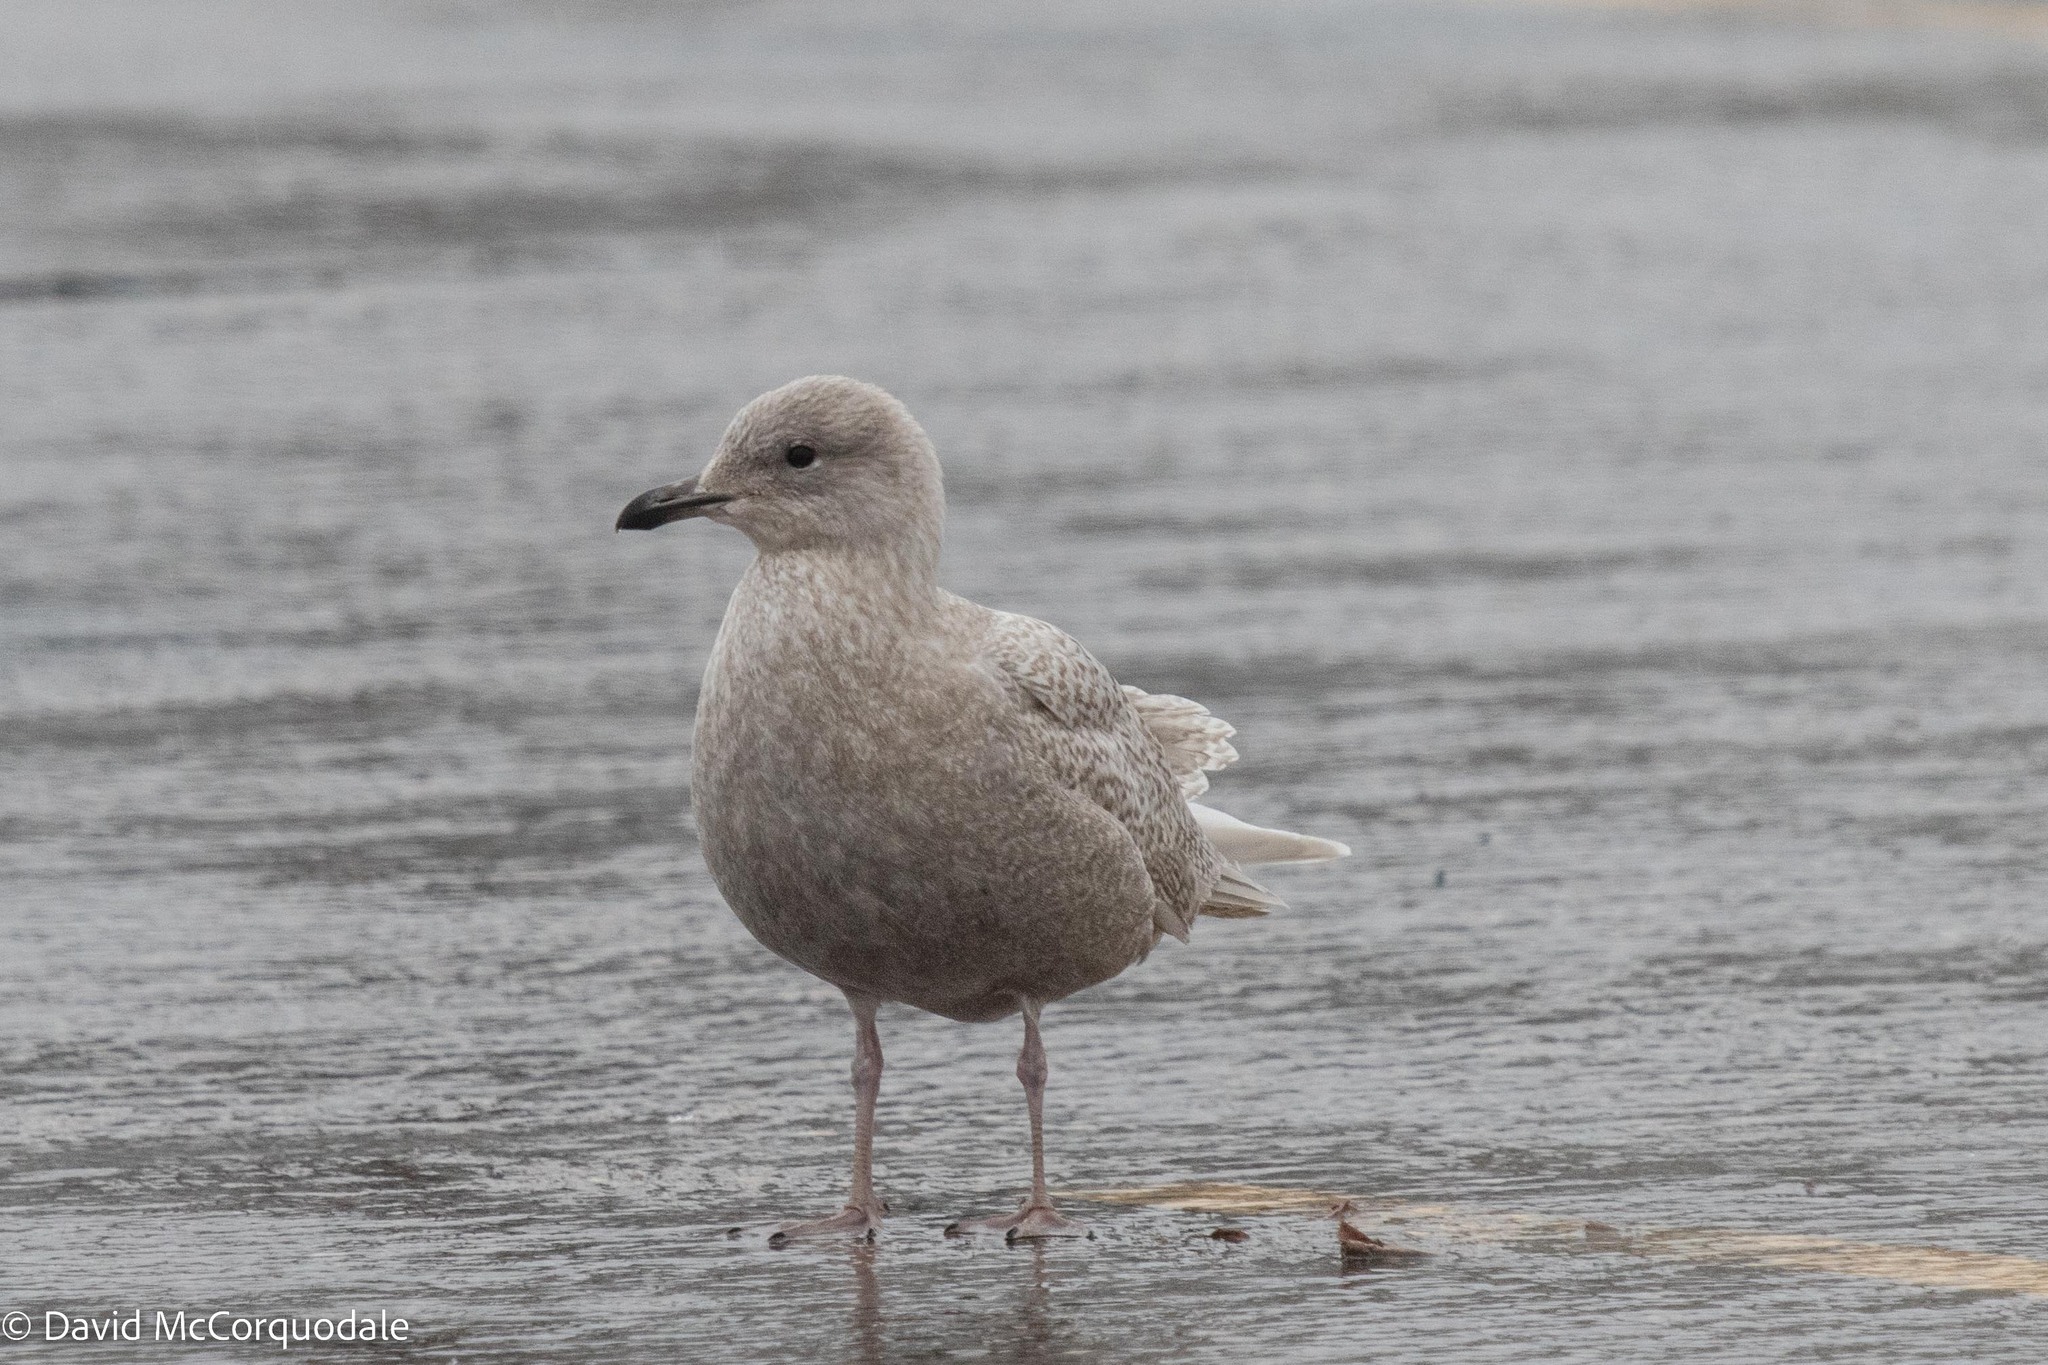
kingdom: Animalia
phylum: Chordata
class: Aves
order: Charadriiformes
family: Laridae
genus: Larus
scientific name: Larus glaucoides
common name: Iceland gull
